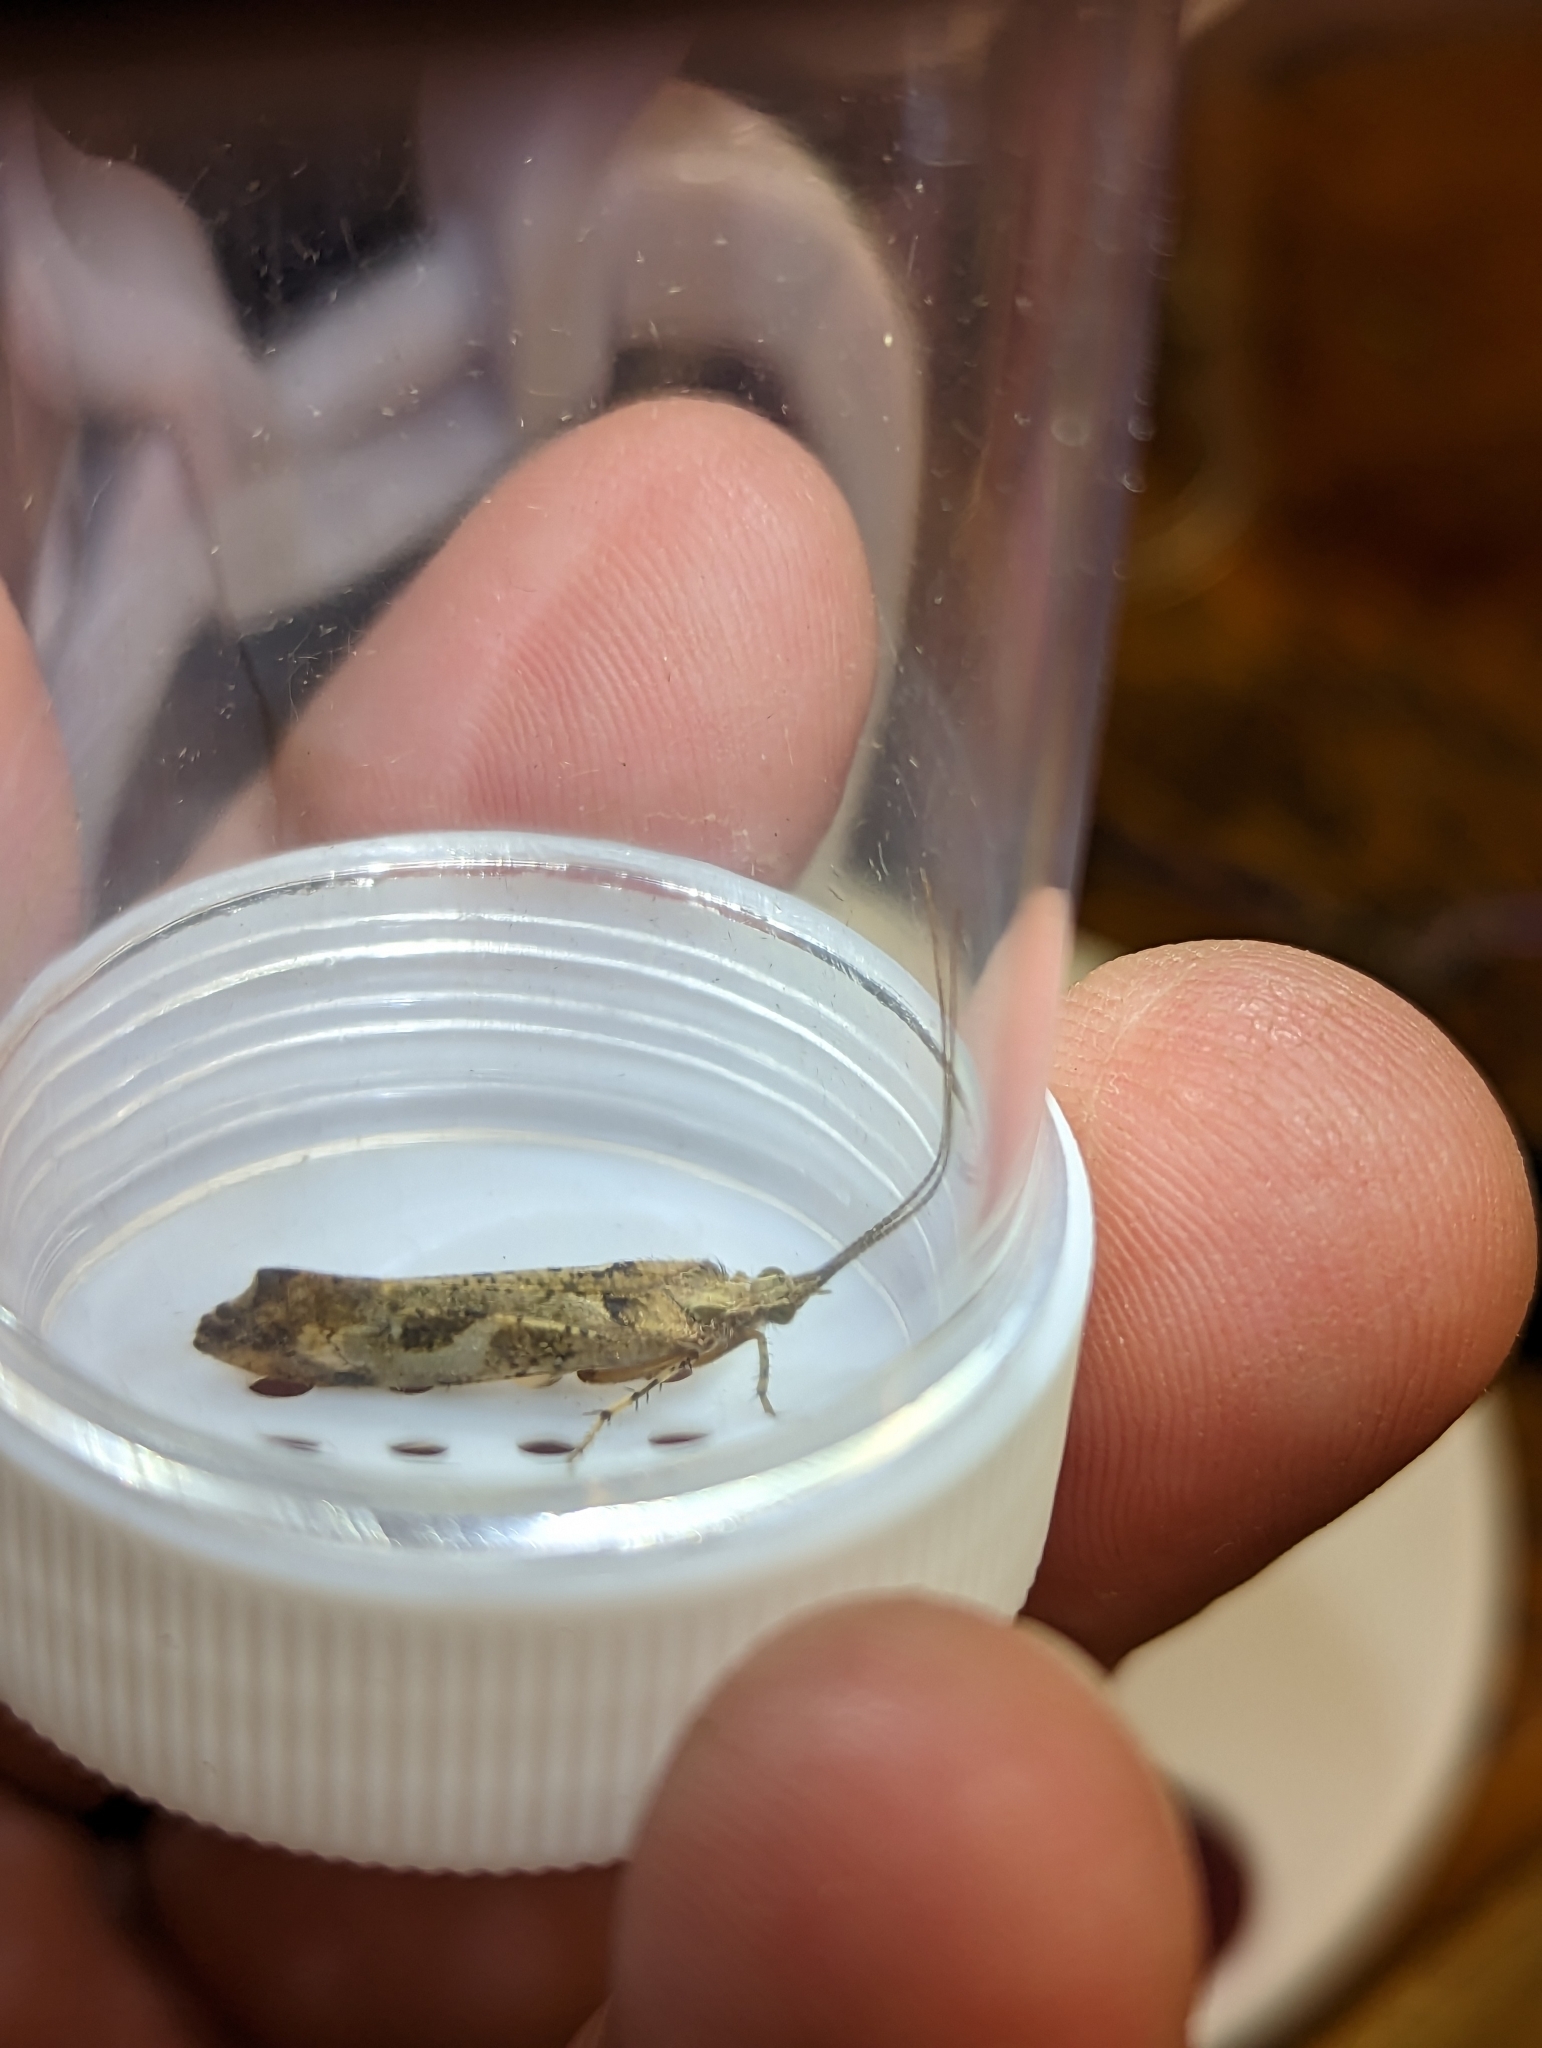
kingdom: Animalia
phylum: Arthropoda
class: Insecta
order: Trichoptera
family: Limnephilidae
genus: Glyphotaelius
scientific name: Glyphotaelius pellucidus
